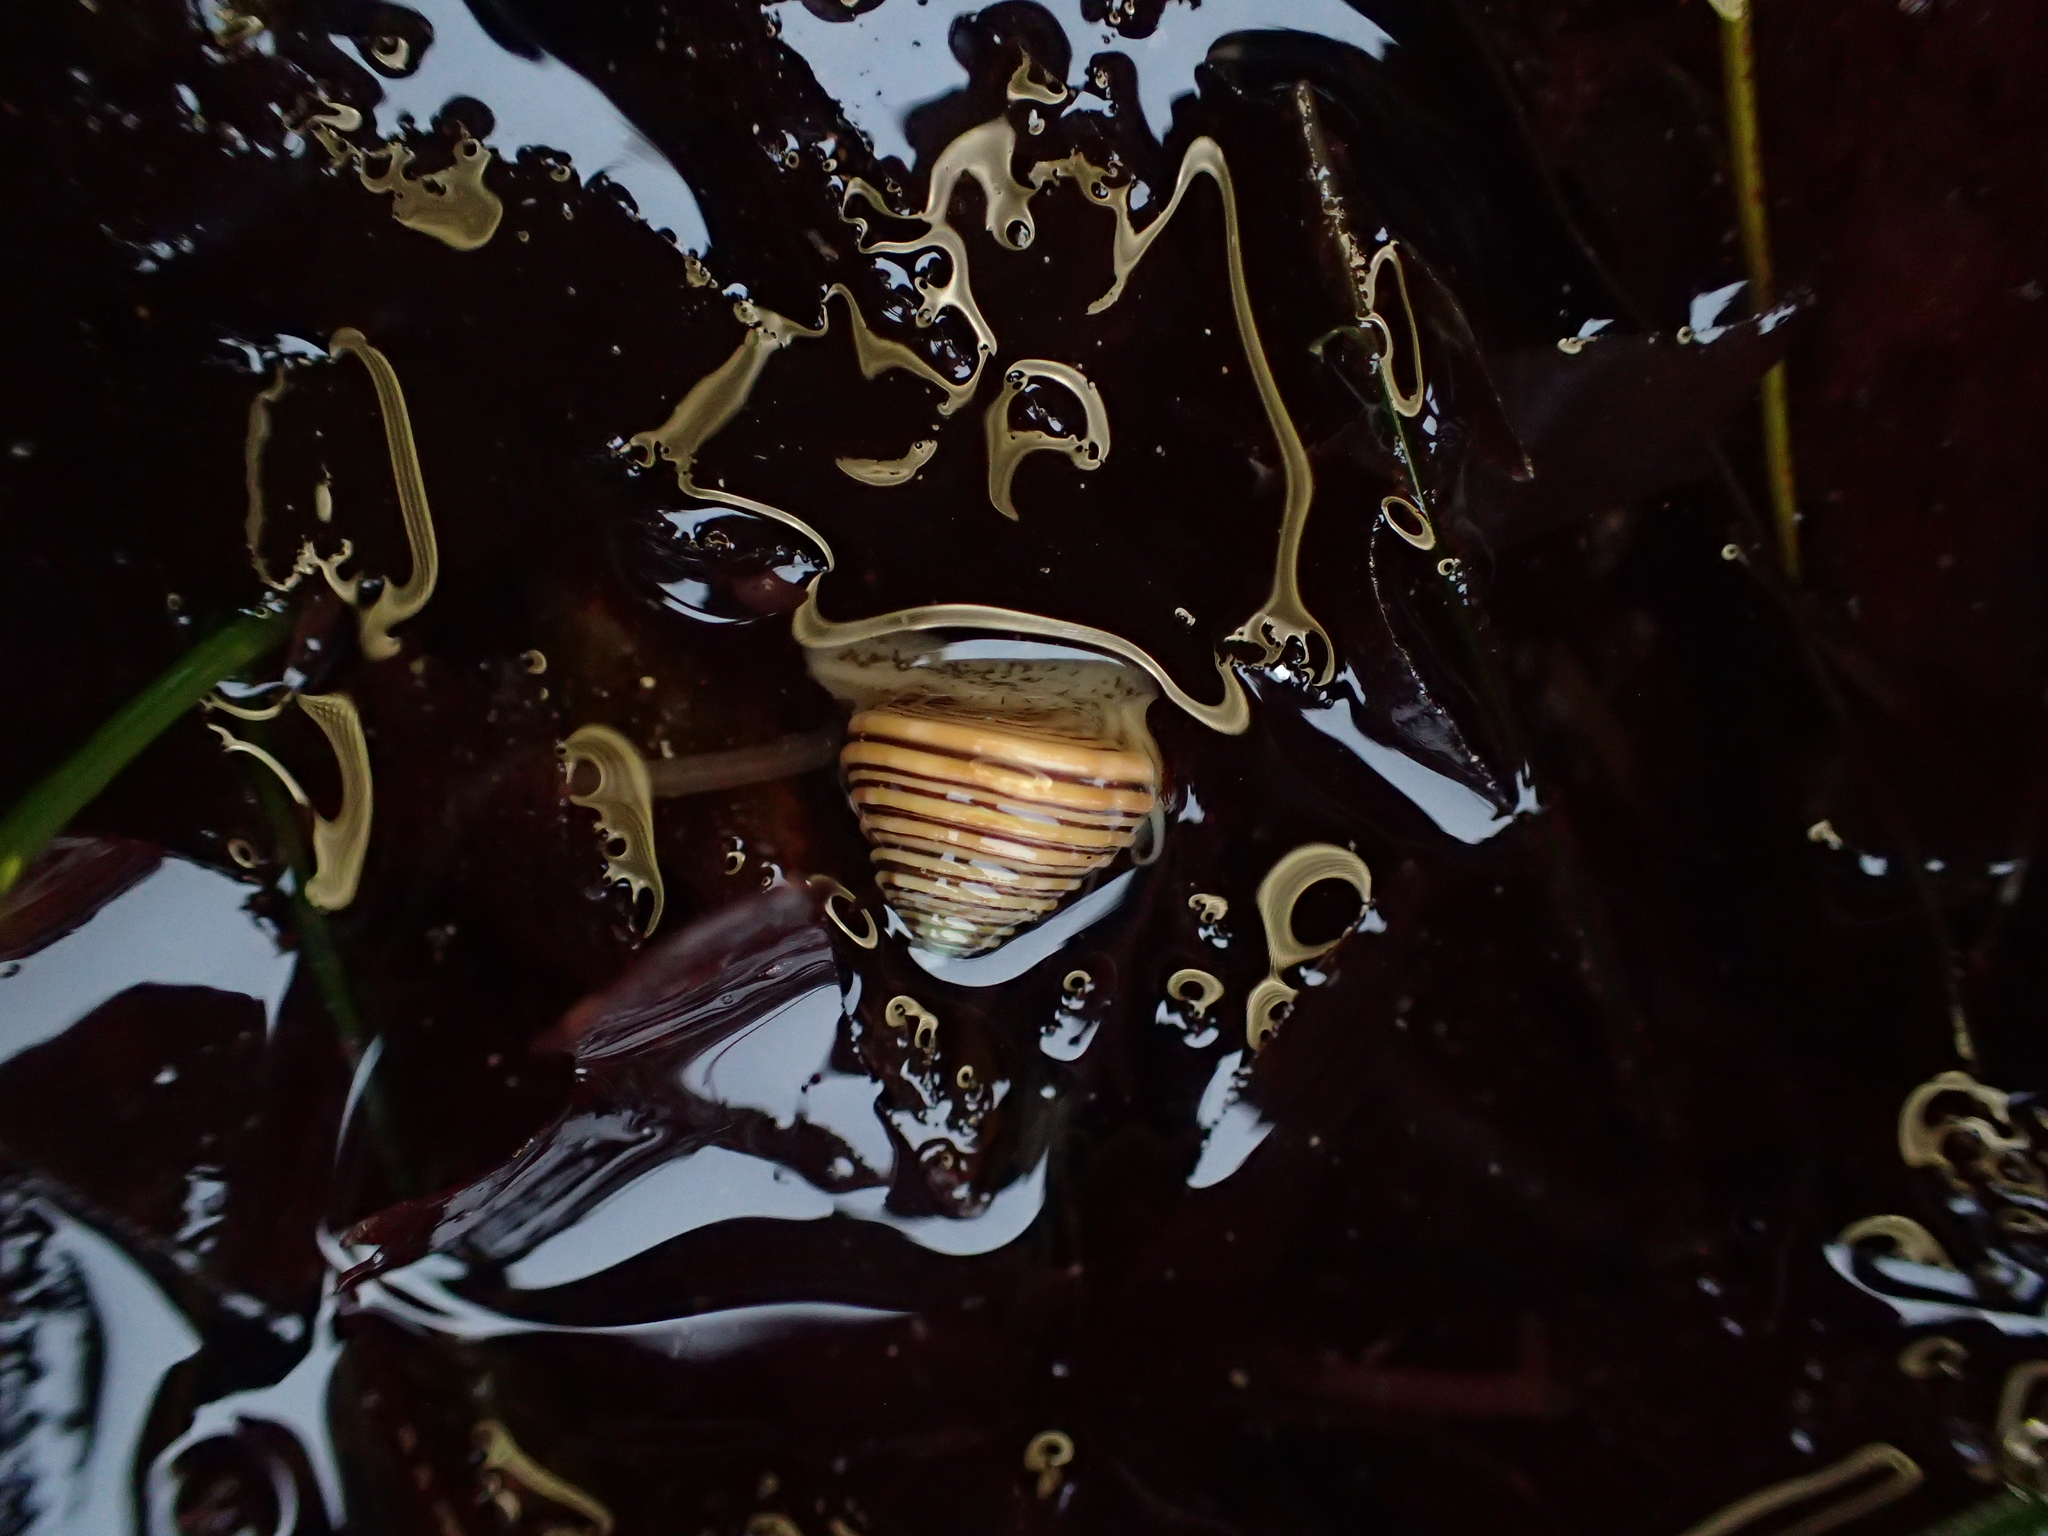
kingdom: Animalia
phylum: Mollusca
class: Gastropoda
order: Trochida
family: Calliostomatidae
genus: Calliostoma
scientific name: Calliostoma canaliculatum
